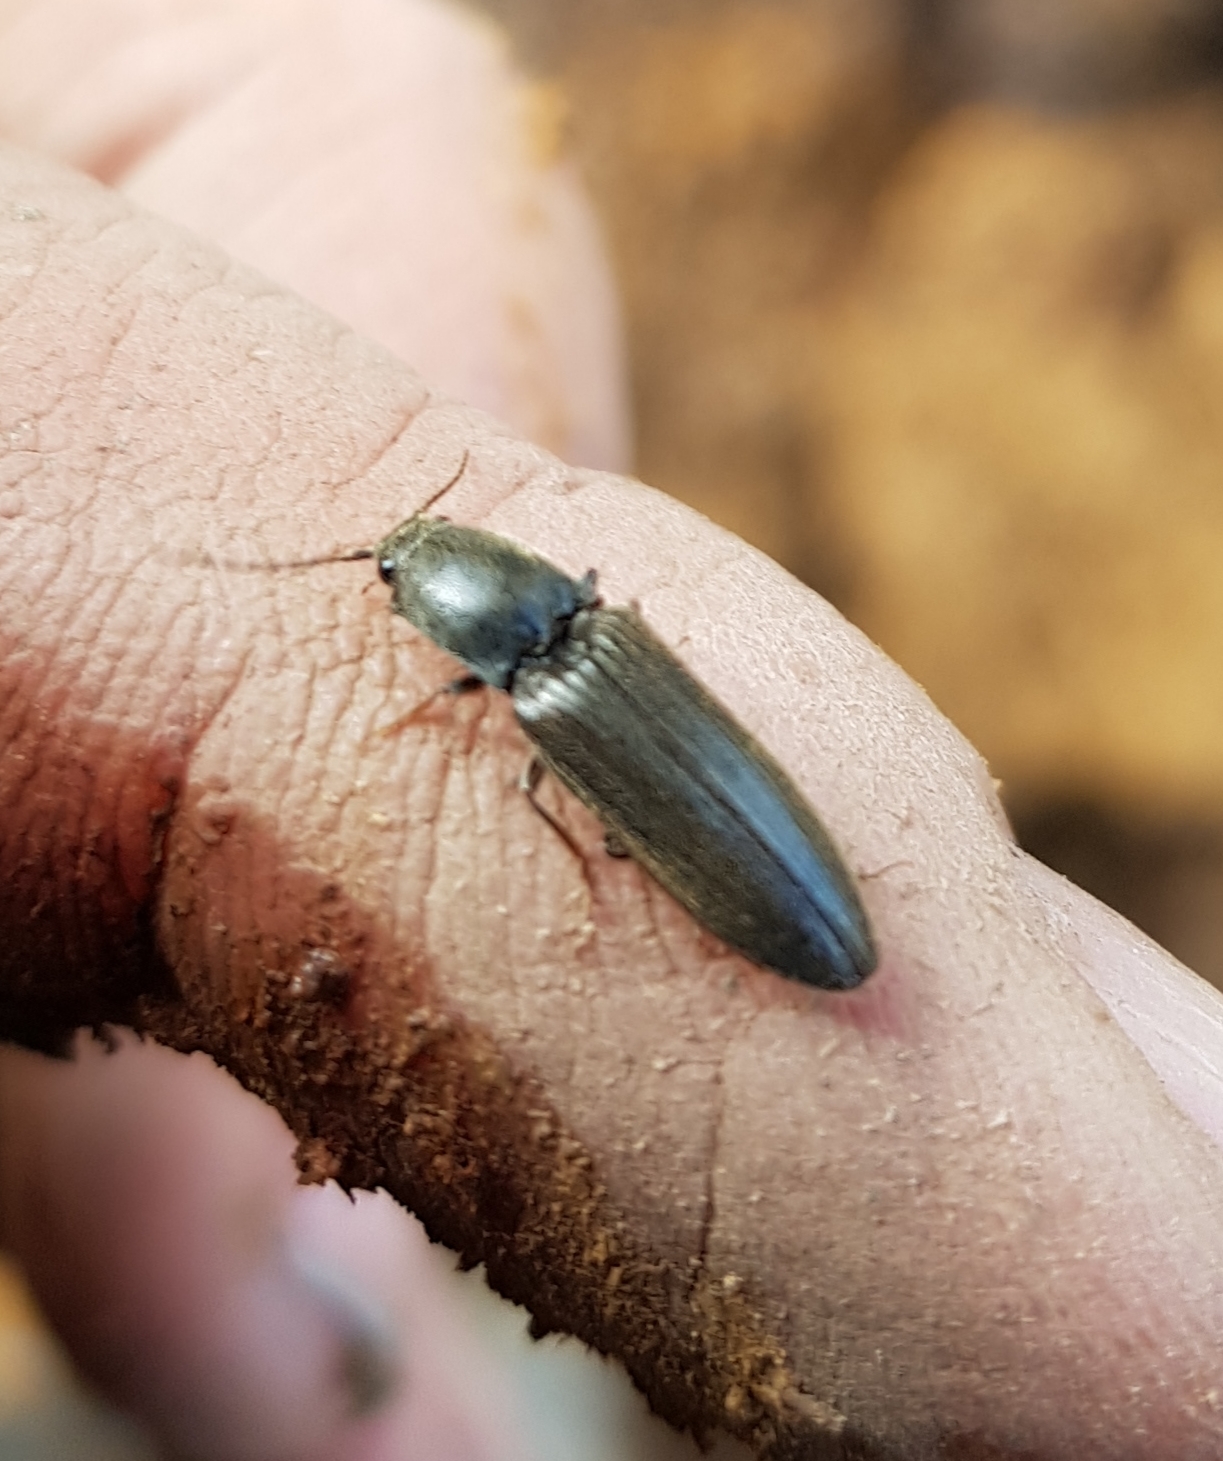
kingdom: Animalia
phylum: Arthropoda
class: Insecta
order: Coleoptera
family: Elateridae
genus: Athous
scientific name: Athous haemorrhoidalis
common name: Red-brown click beetle
